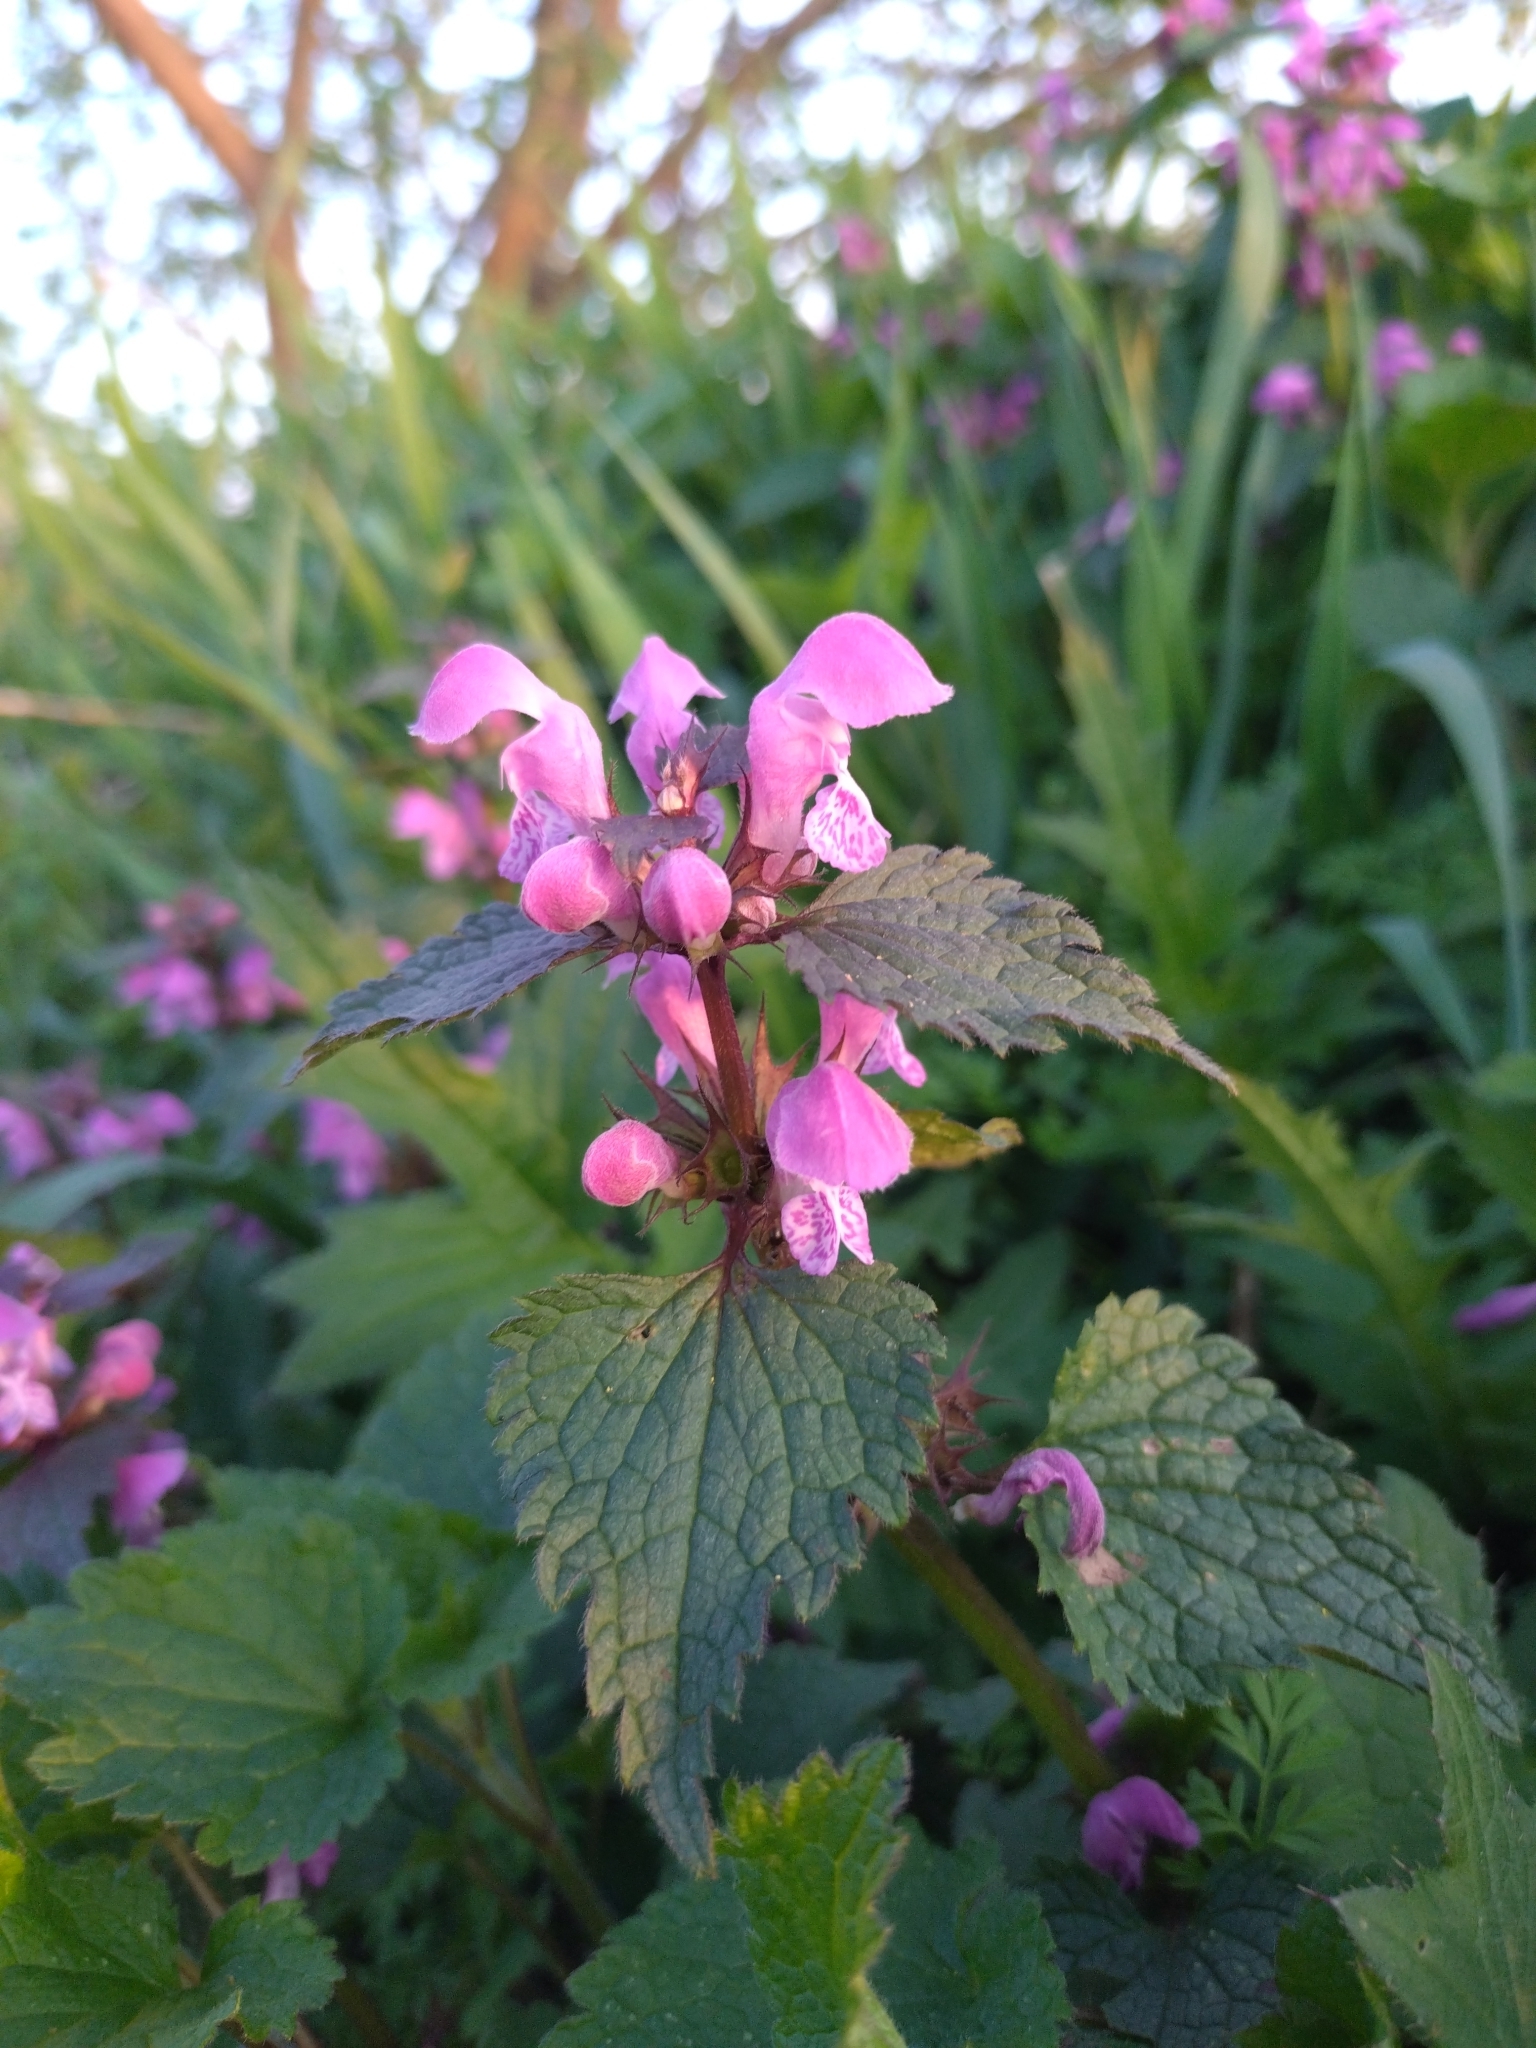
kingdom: Plantae
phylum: Tracheophyta
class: Magnoliopsida
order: Lamiales
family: Lamiaceae
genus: Lamium
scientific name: Lamium maculatum
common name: Spotted dead-nettle
